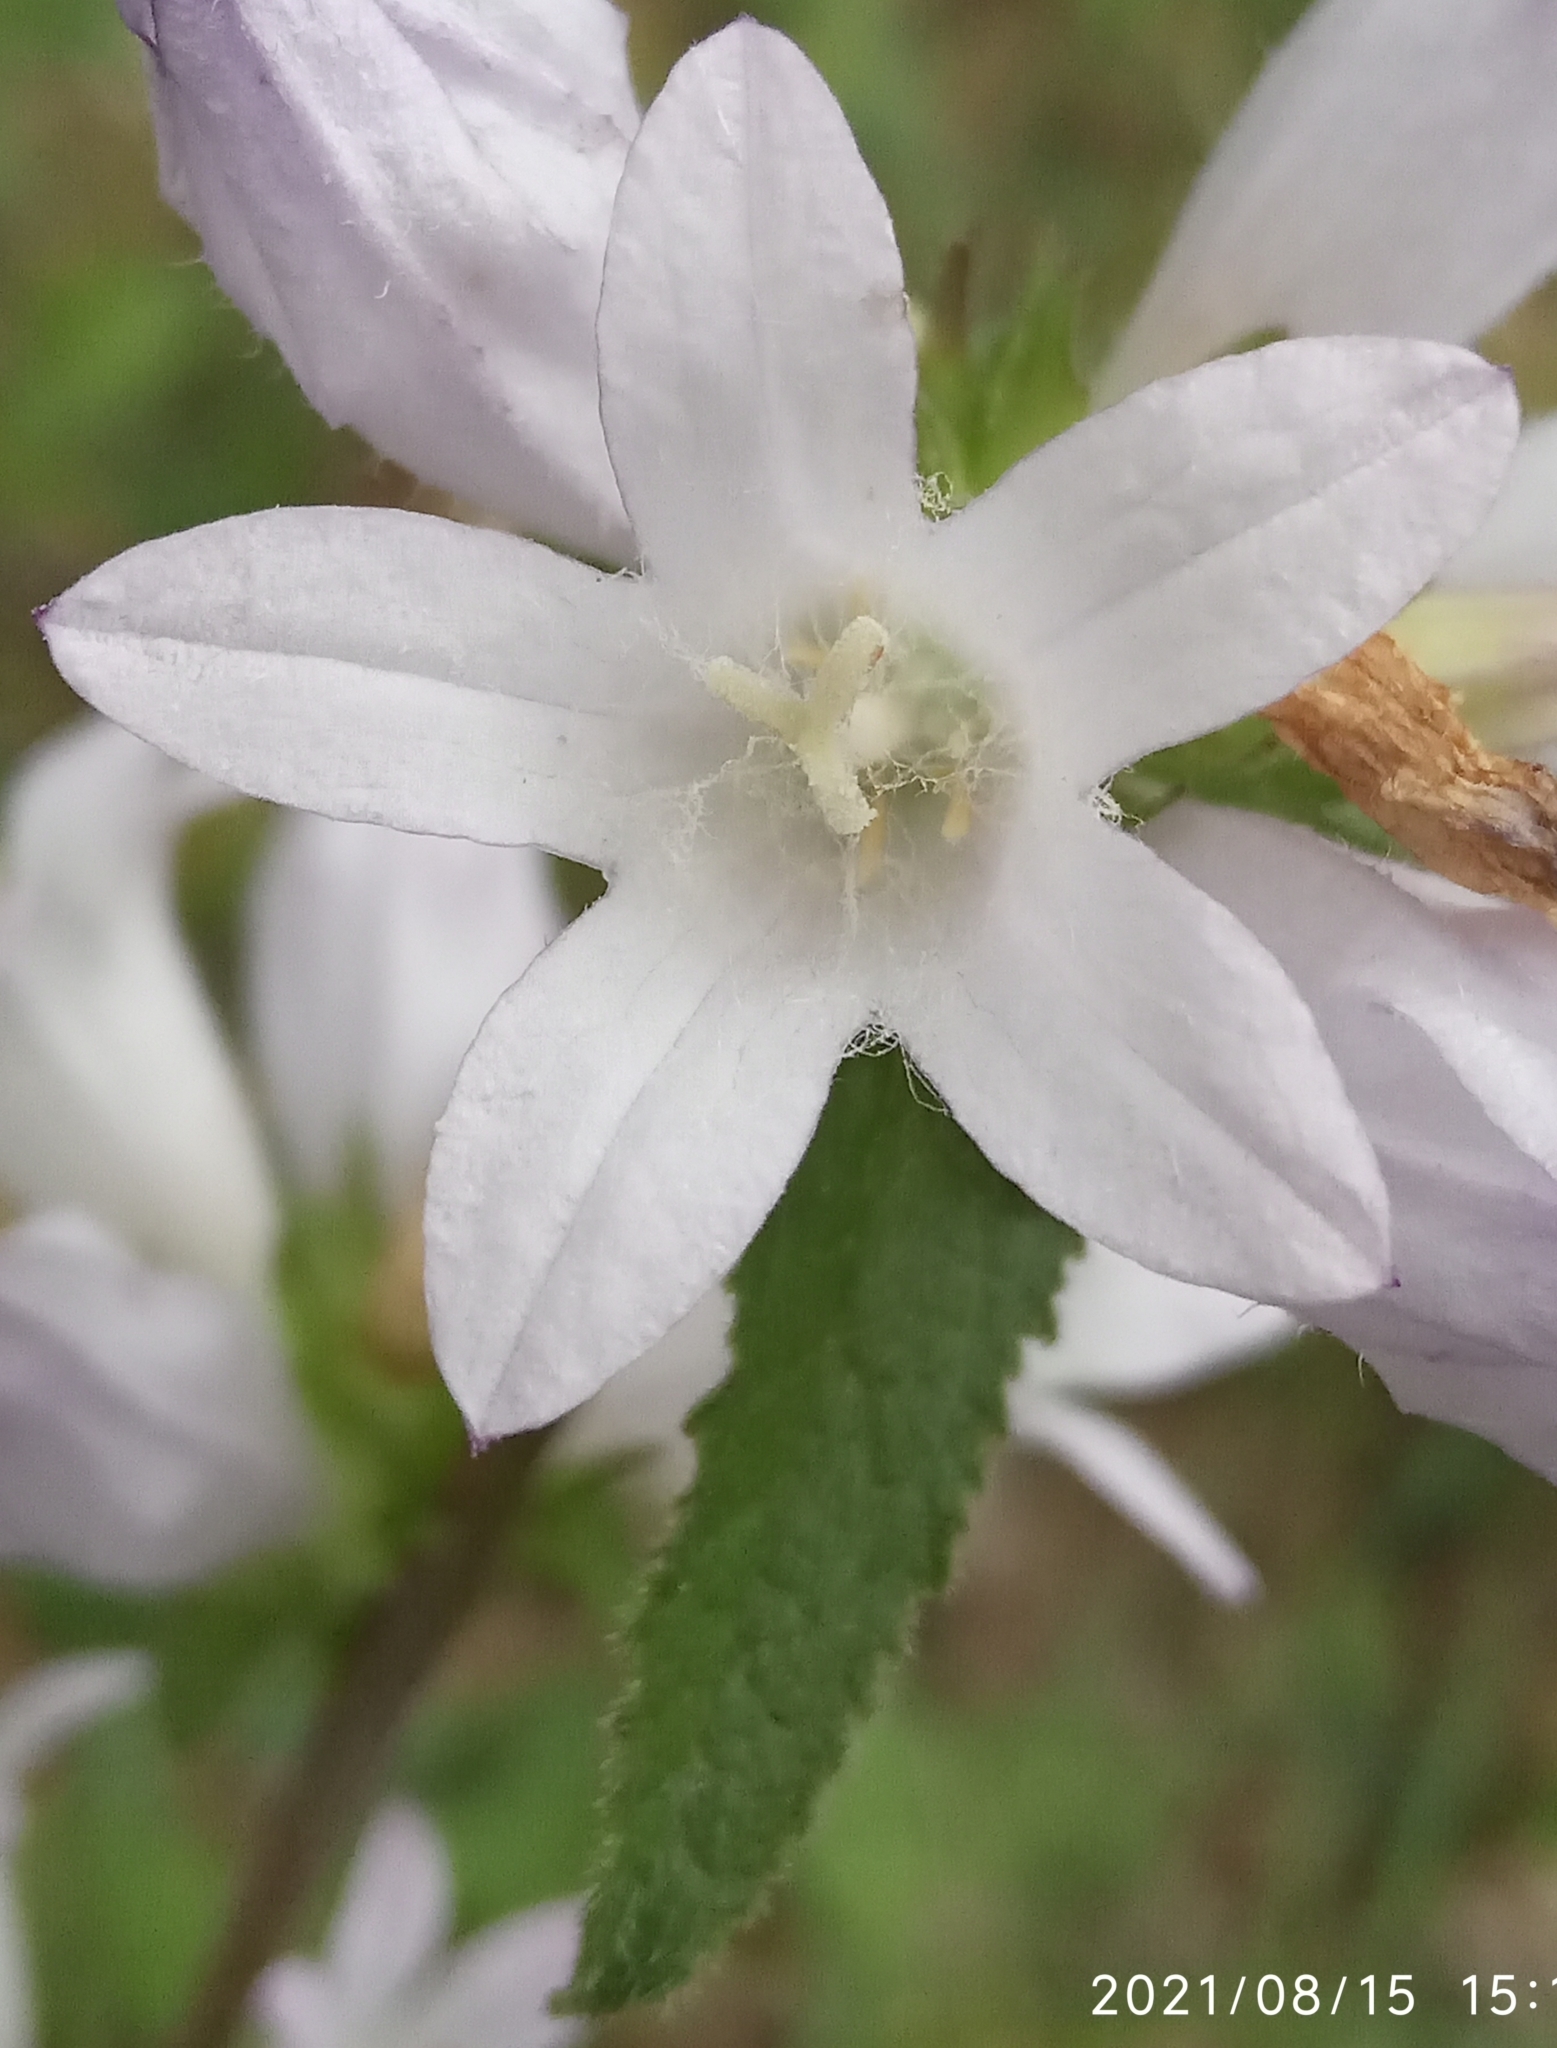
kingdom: Plantae
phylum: Tracheophyta
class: Magnoliopsida
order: Asterales
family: Campanulaceae
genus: Campanula
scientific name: Campanula glomerata
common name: Clustered bellflower
